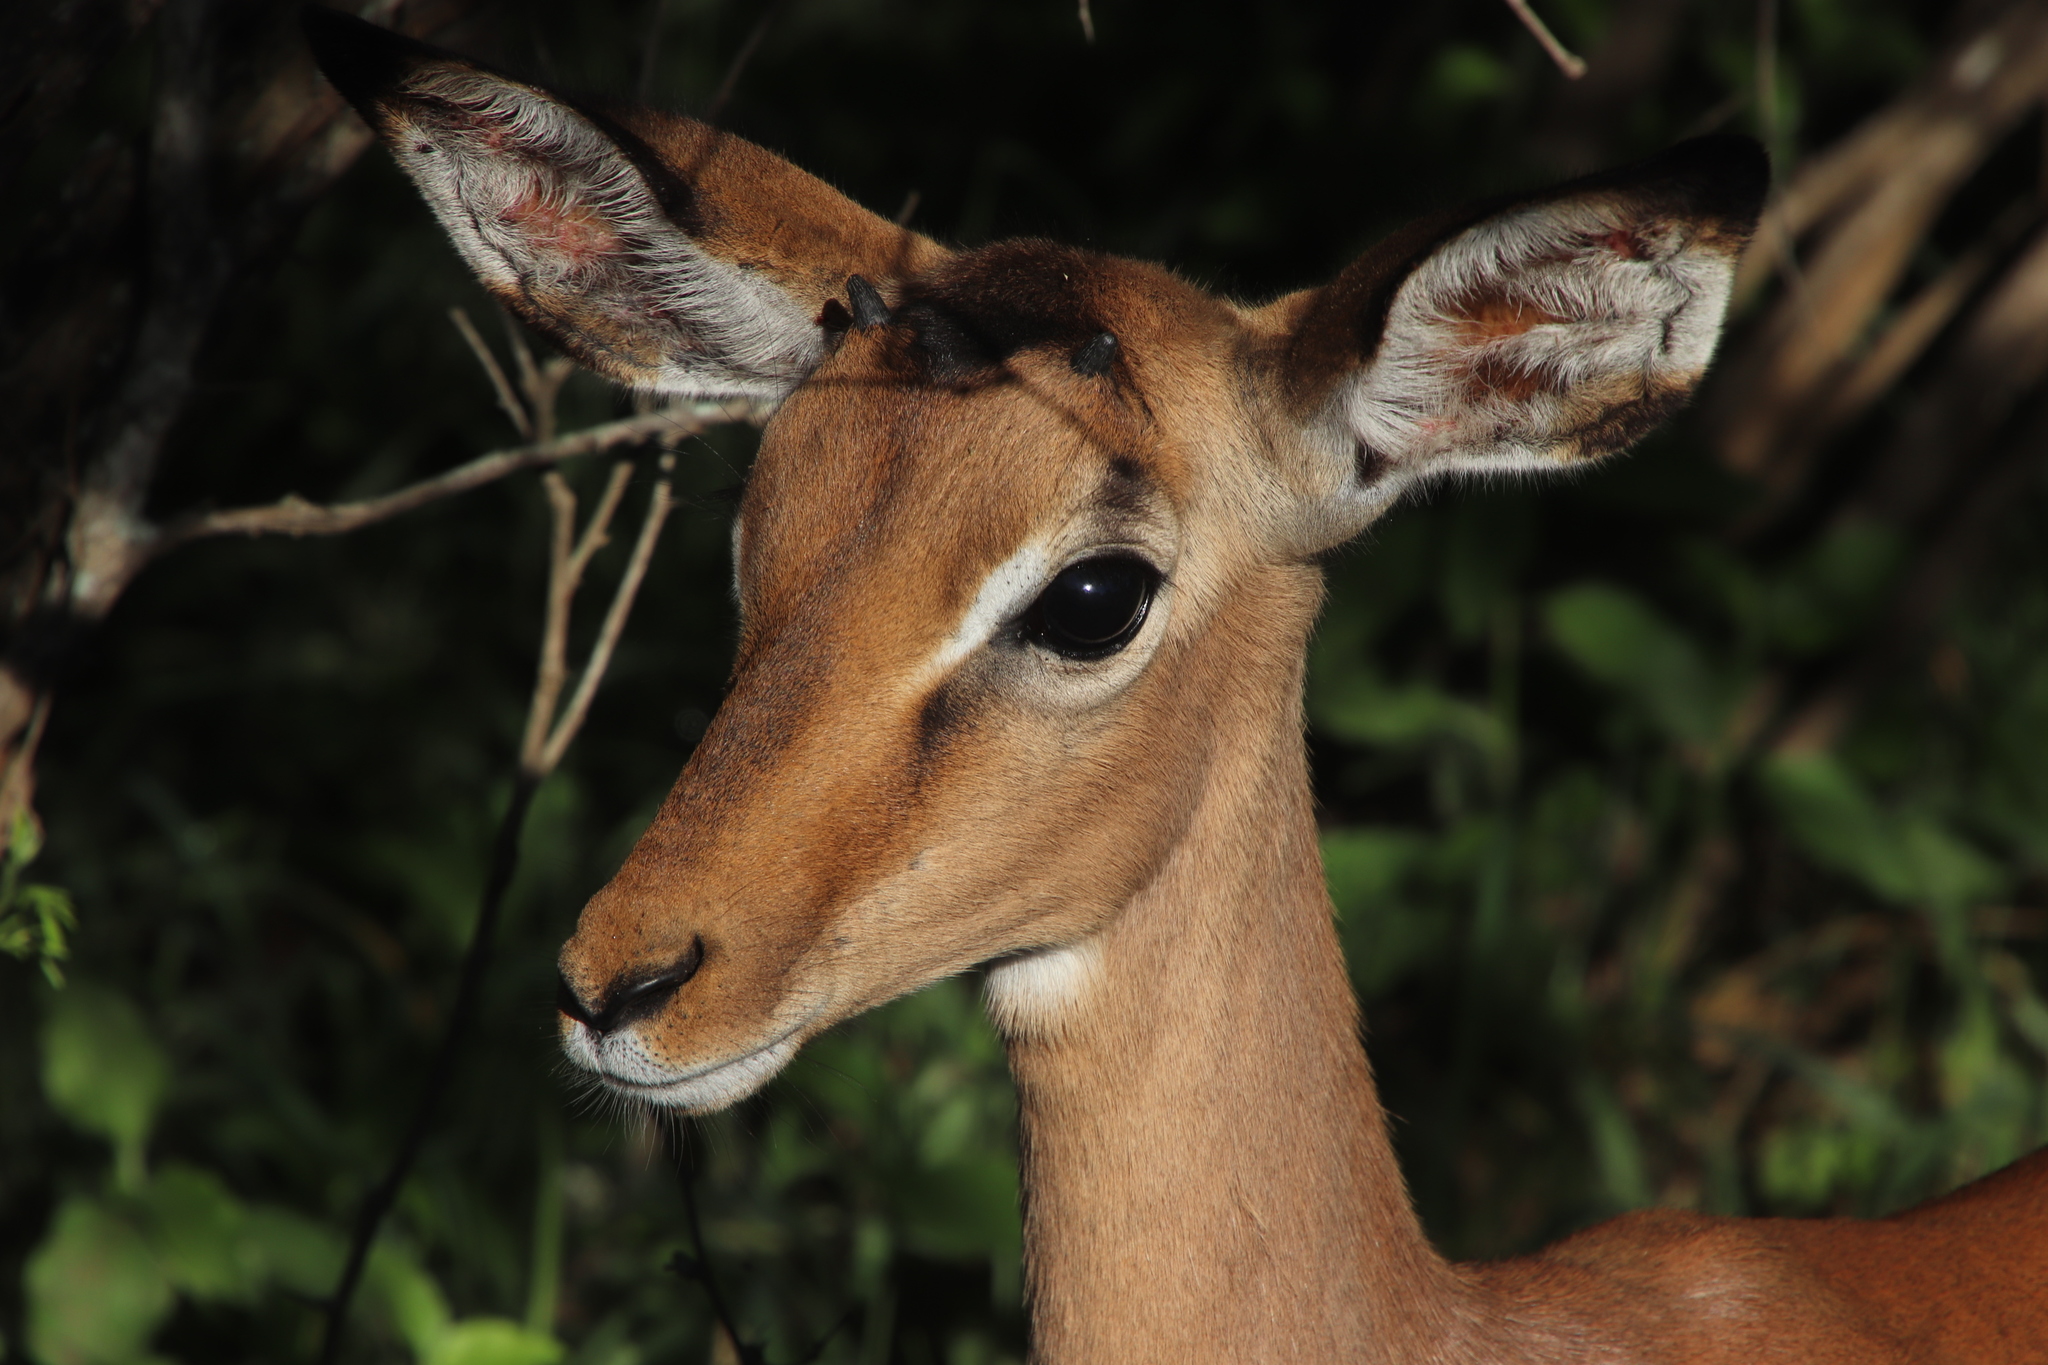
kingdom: Animalia
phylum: Chordata
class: Mammalia
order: Artiodactyla
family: Bovidae
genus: Aepyceros
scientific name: Aepyceros melampus
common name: Impala
